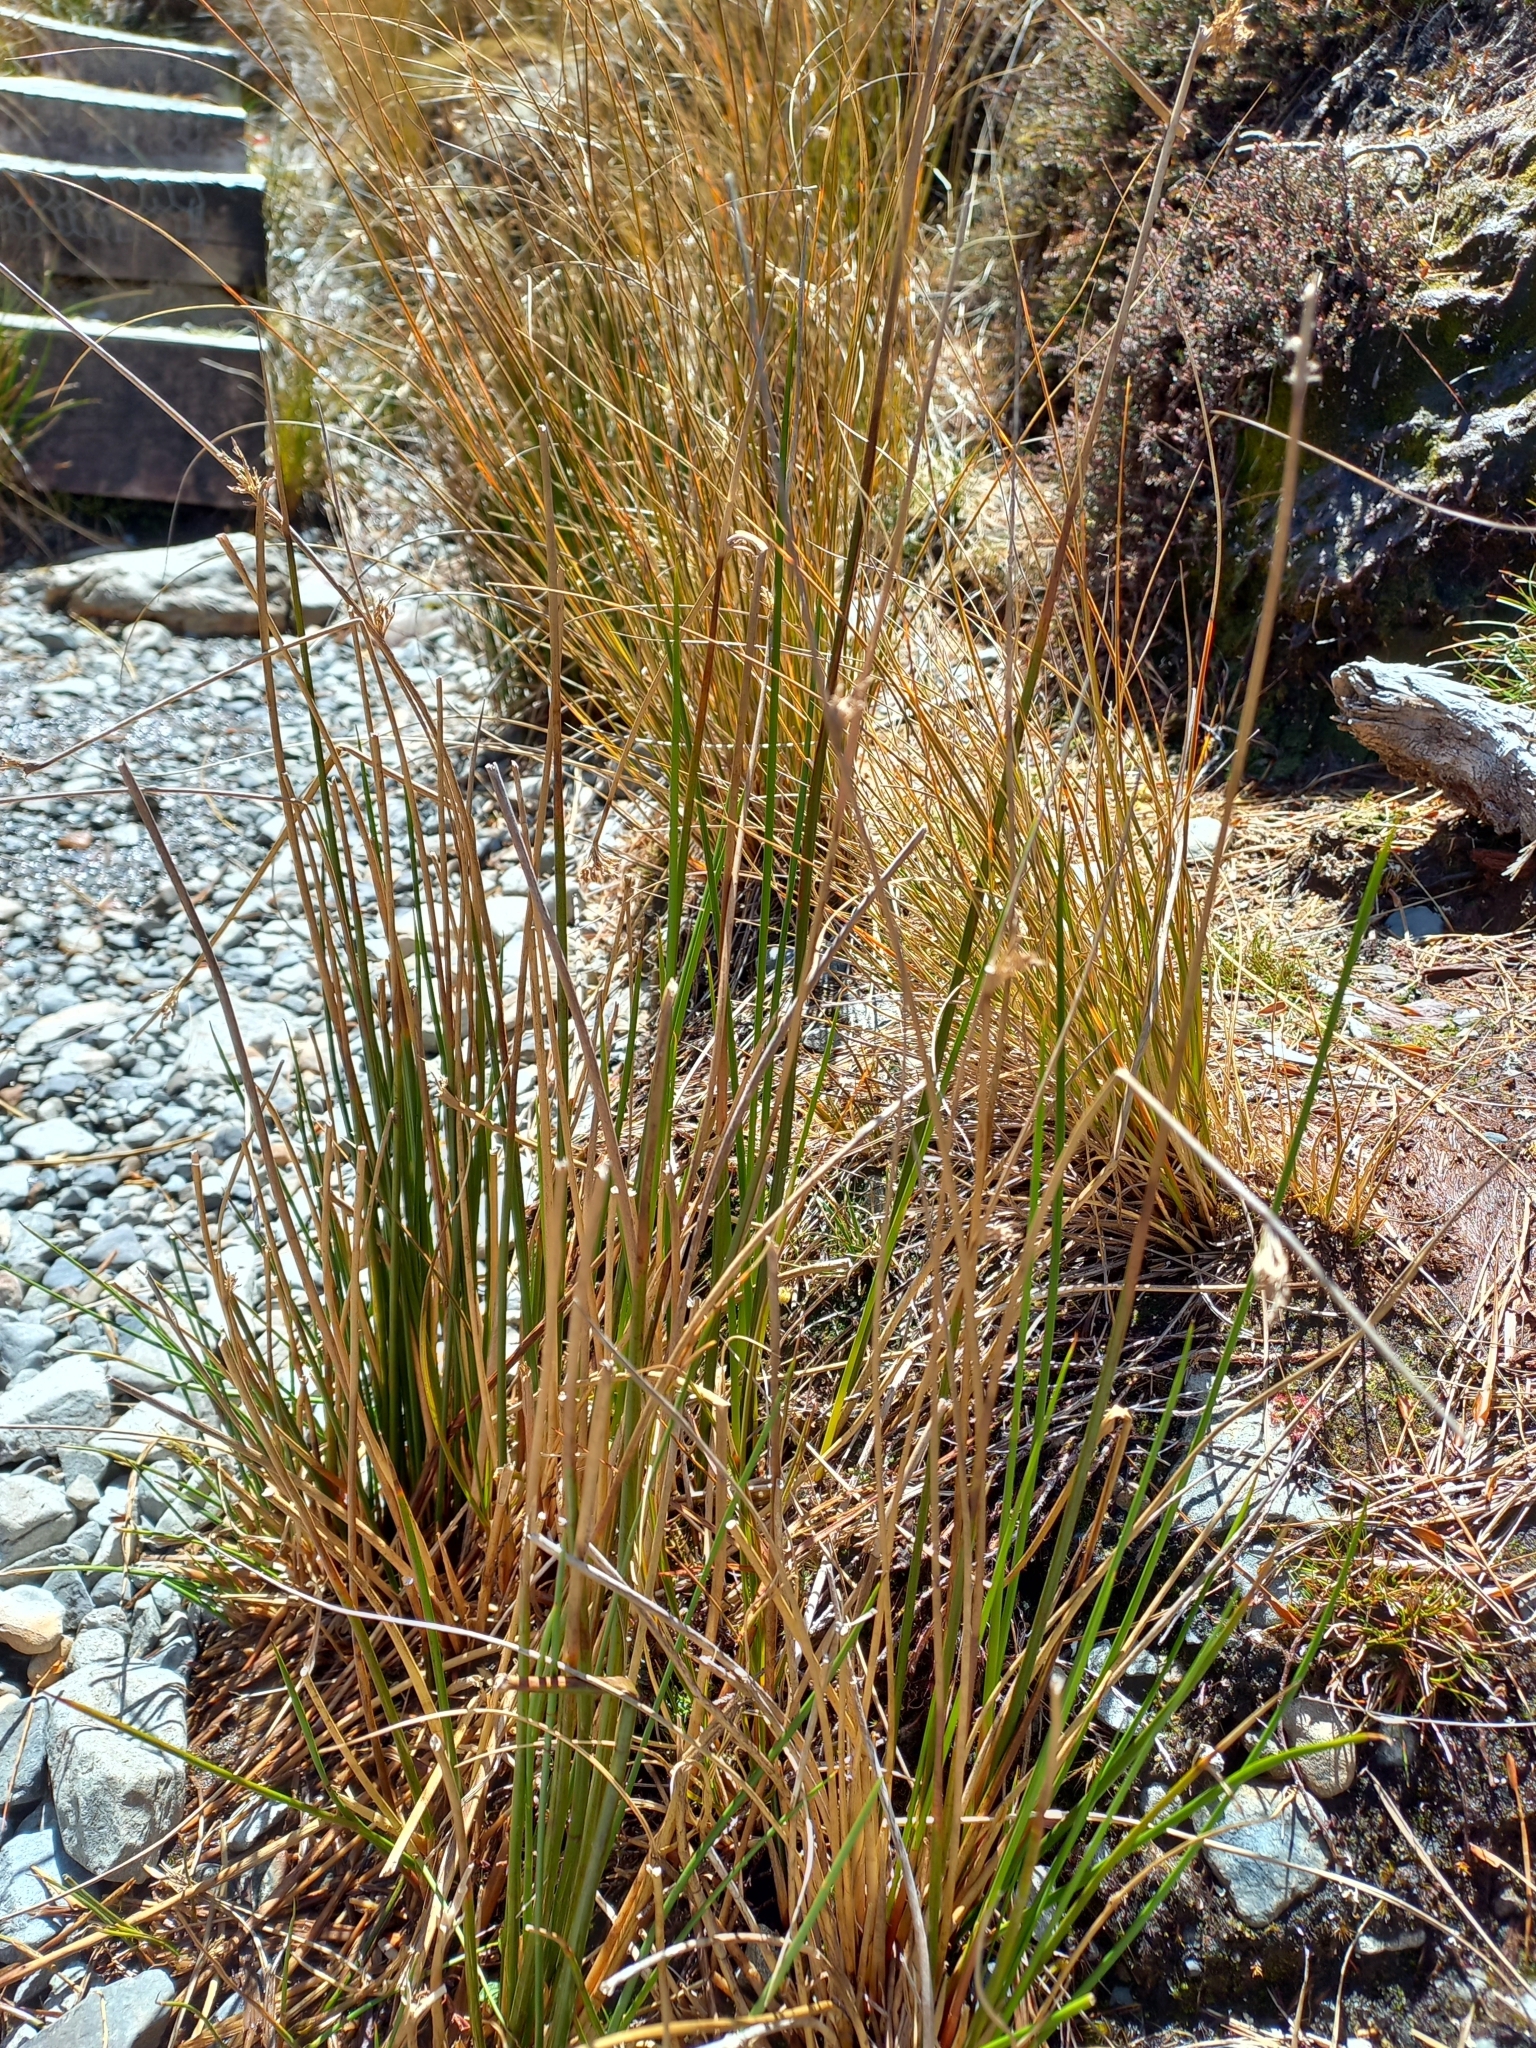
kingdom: Plantae
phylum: Tracheophyta
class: Liliopsida
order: Poales
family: Juncaceae
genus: Juncus
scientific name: Juncus effusus
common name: Soft rush
